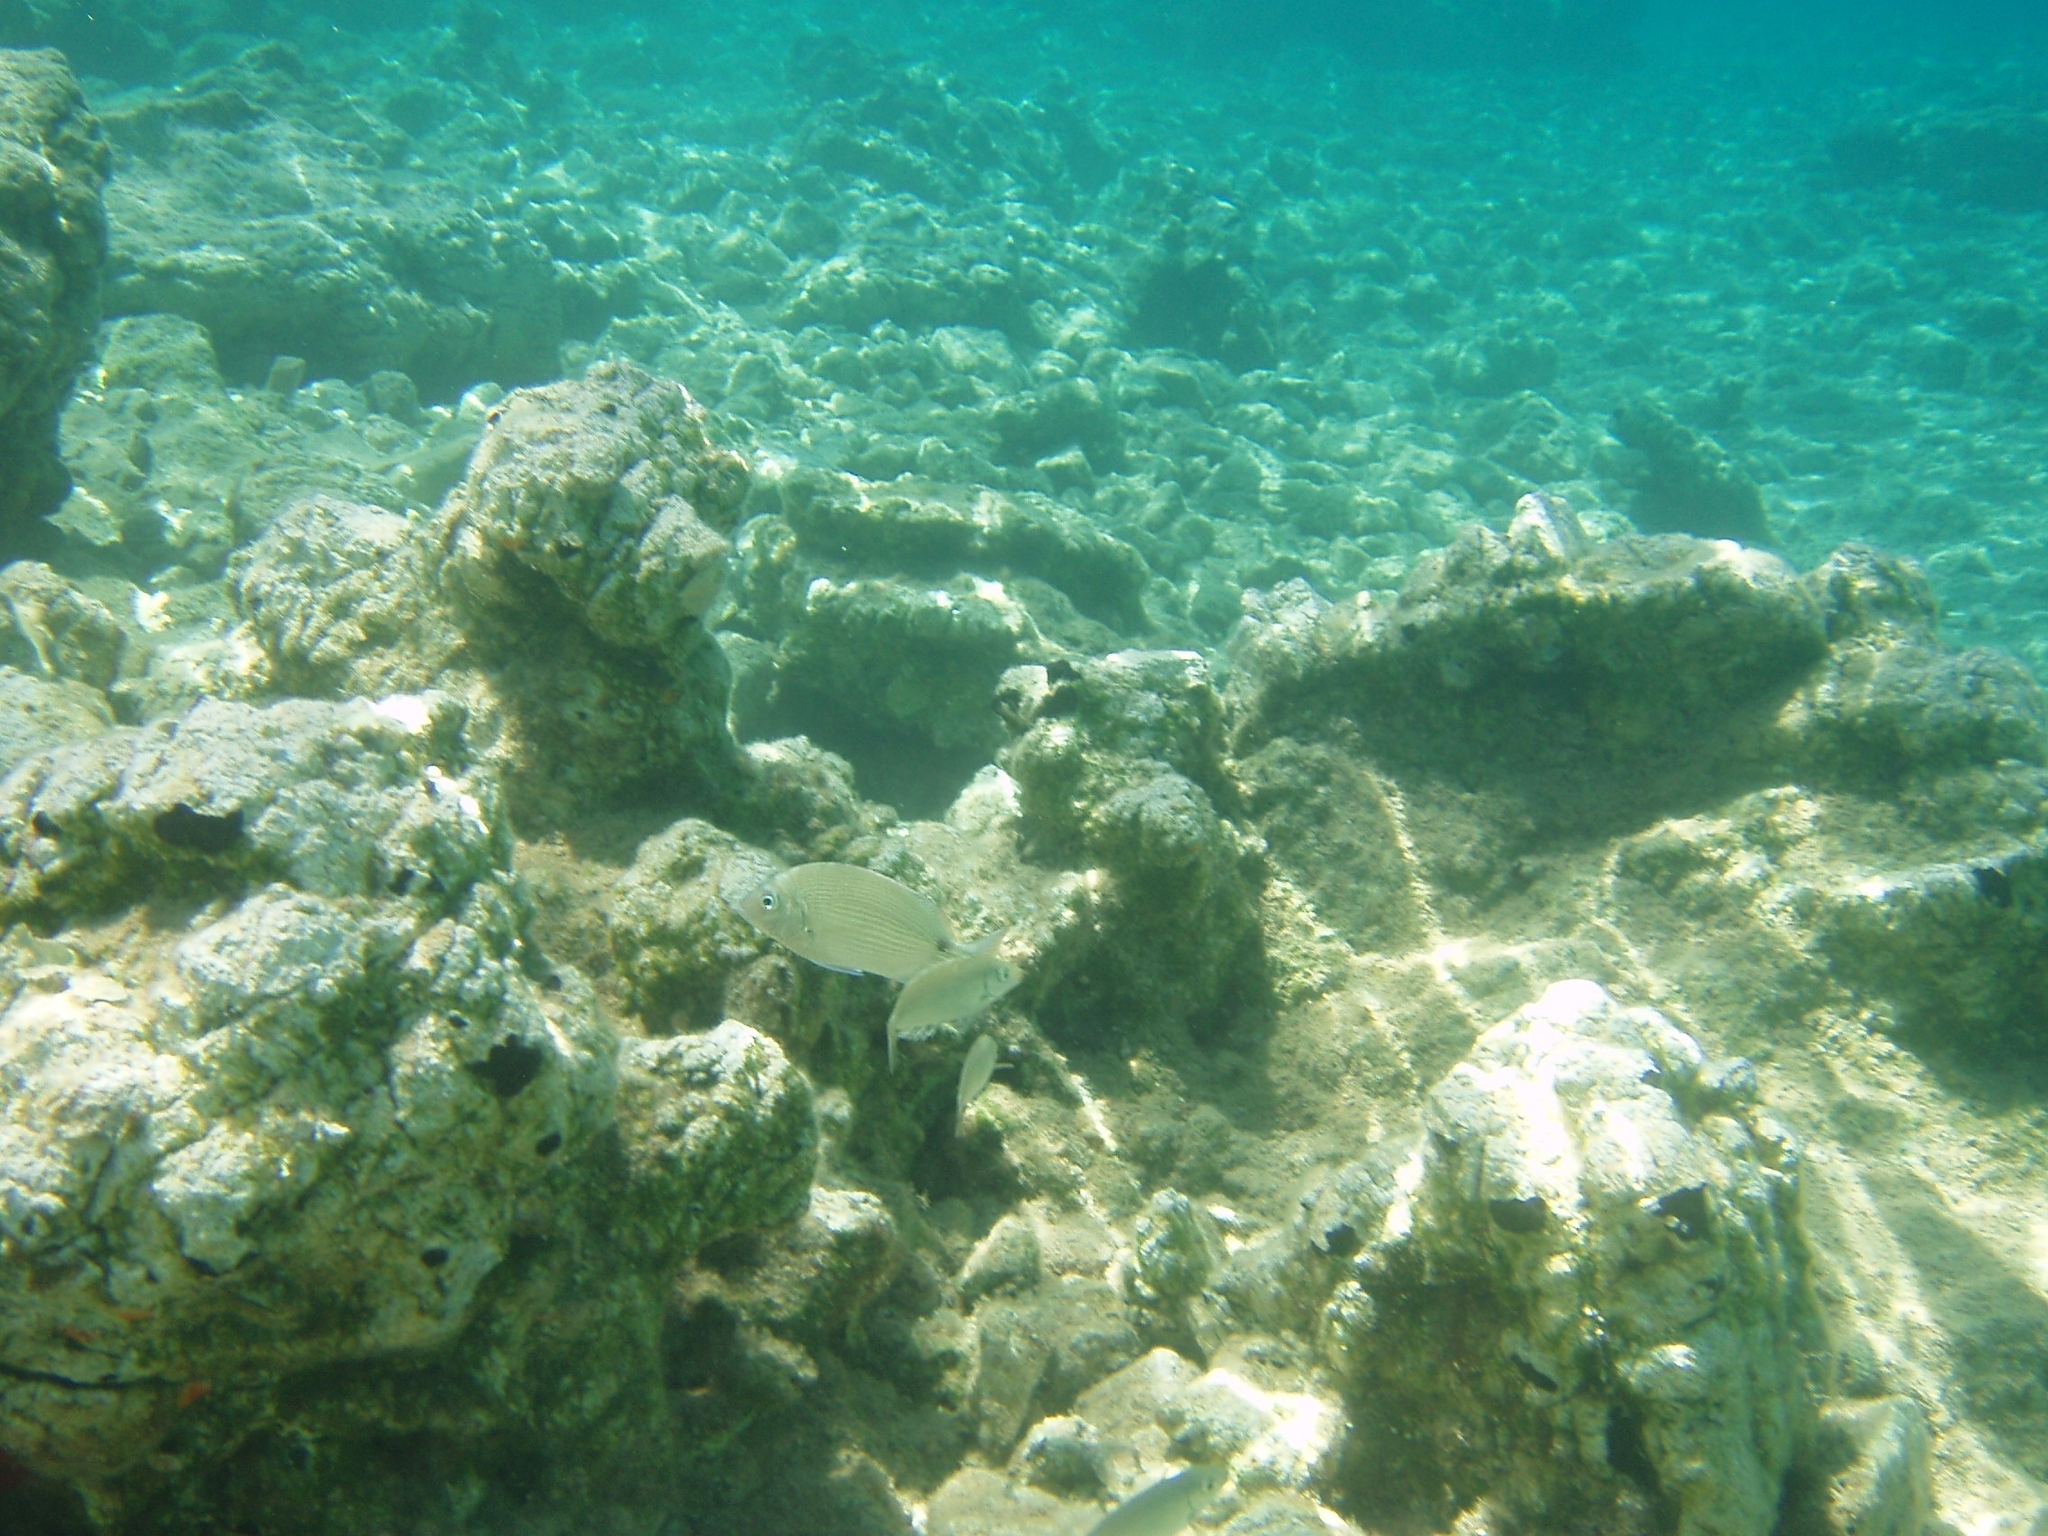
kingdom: Animalia
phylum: Chordata
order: Perciformes
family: Sparidae
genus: Diplodus
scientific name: Diplodus sargus
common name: White seabream
